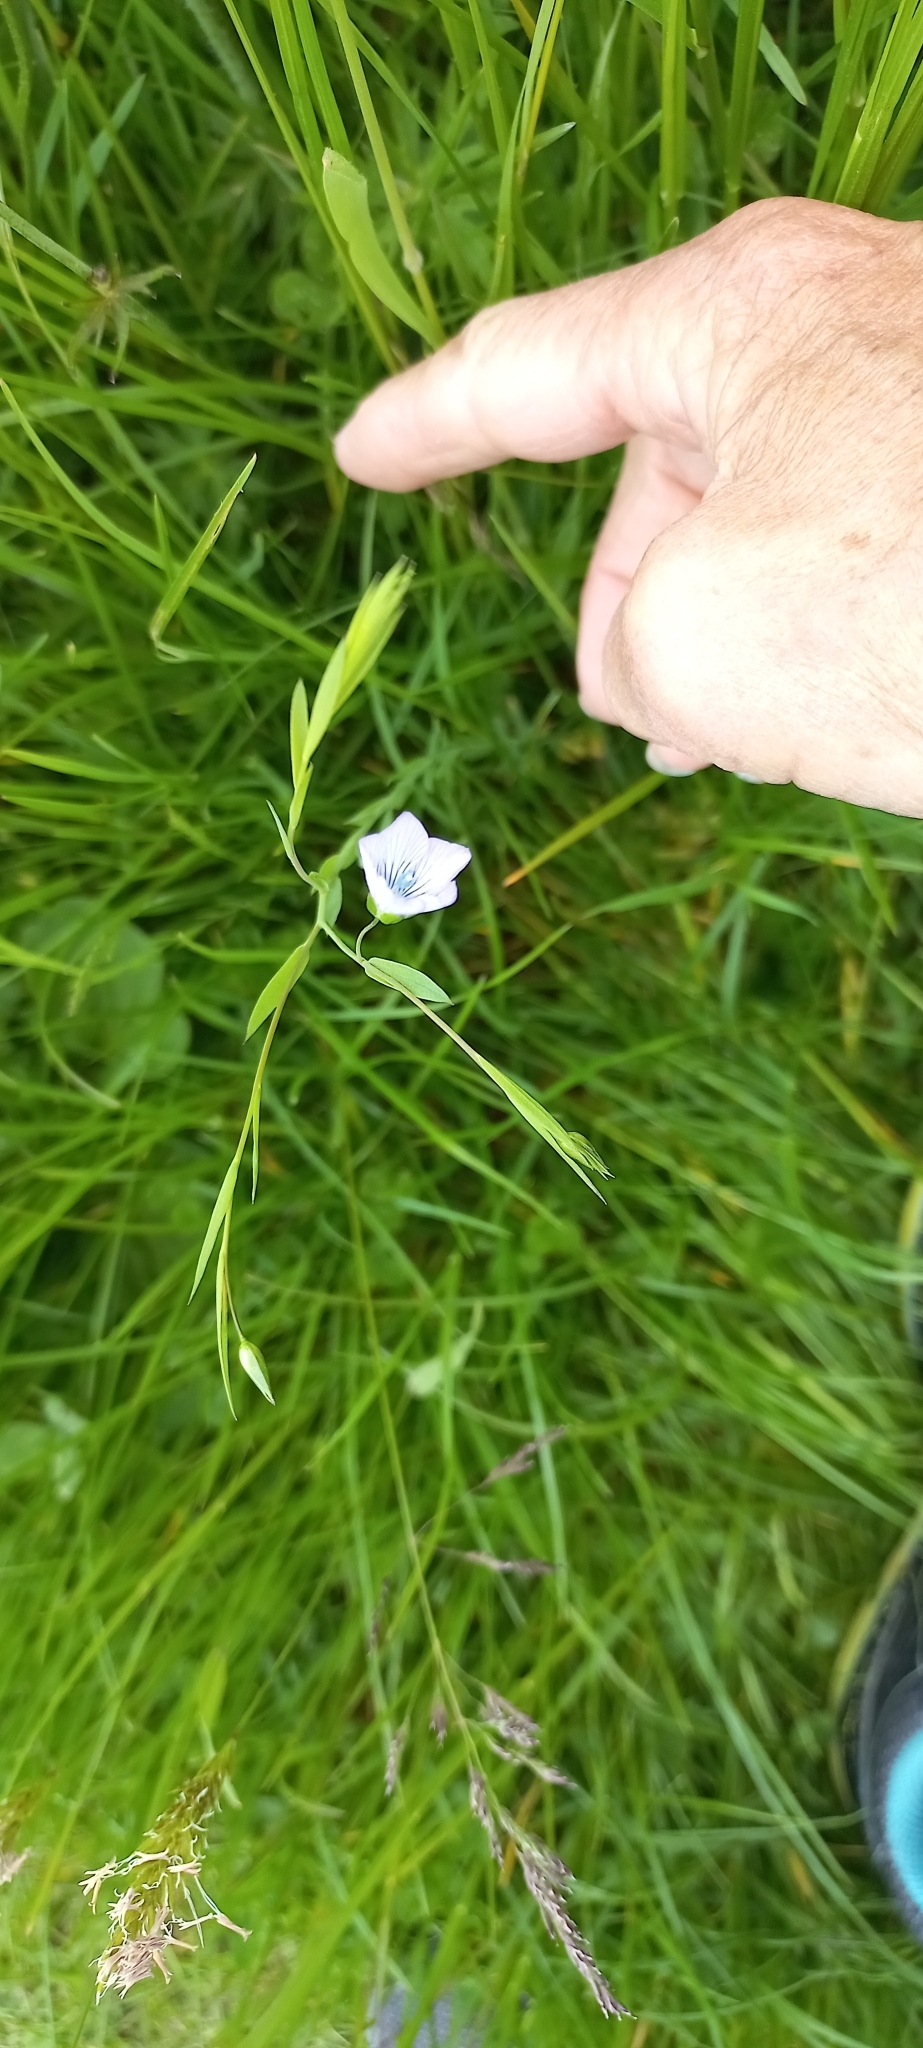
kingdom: Plantae
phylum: Tracheophyta
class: Magnoliopsida
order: Malpighiales
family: Linaceae
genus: Linum
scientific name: Linum usitatissimum
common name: Flax
